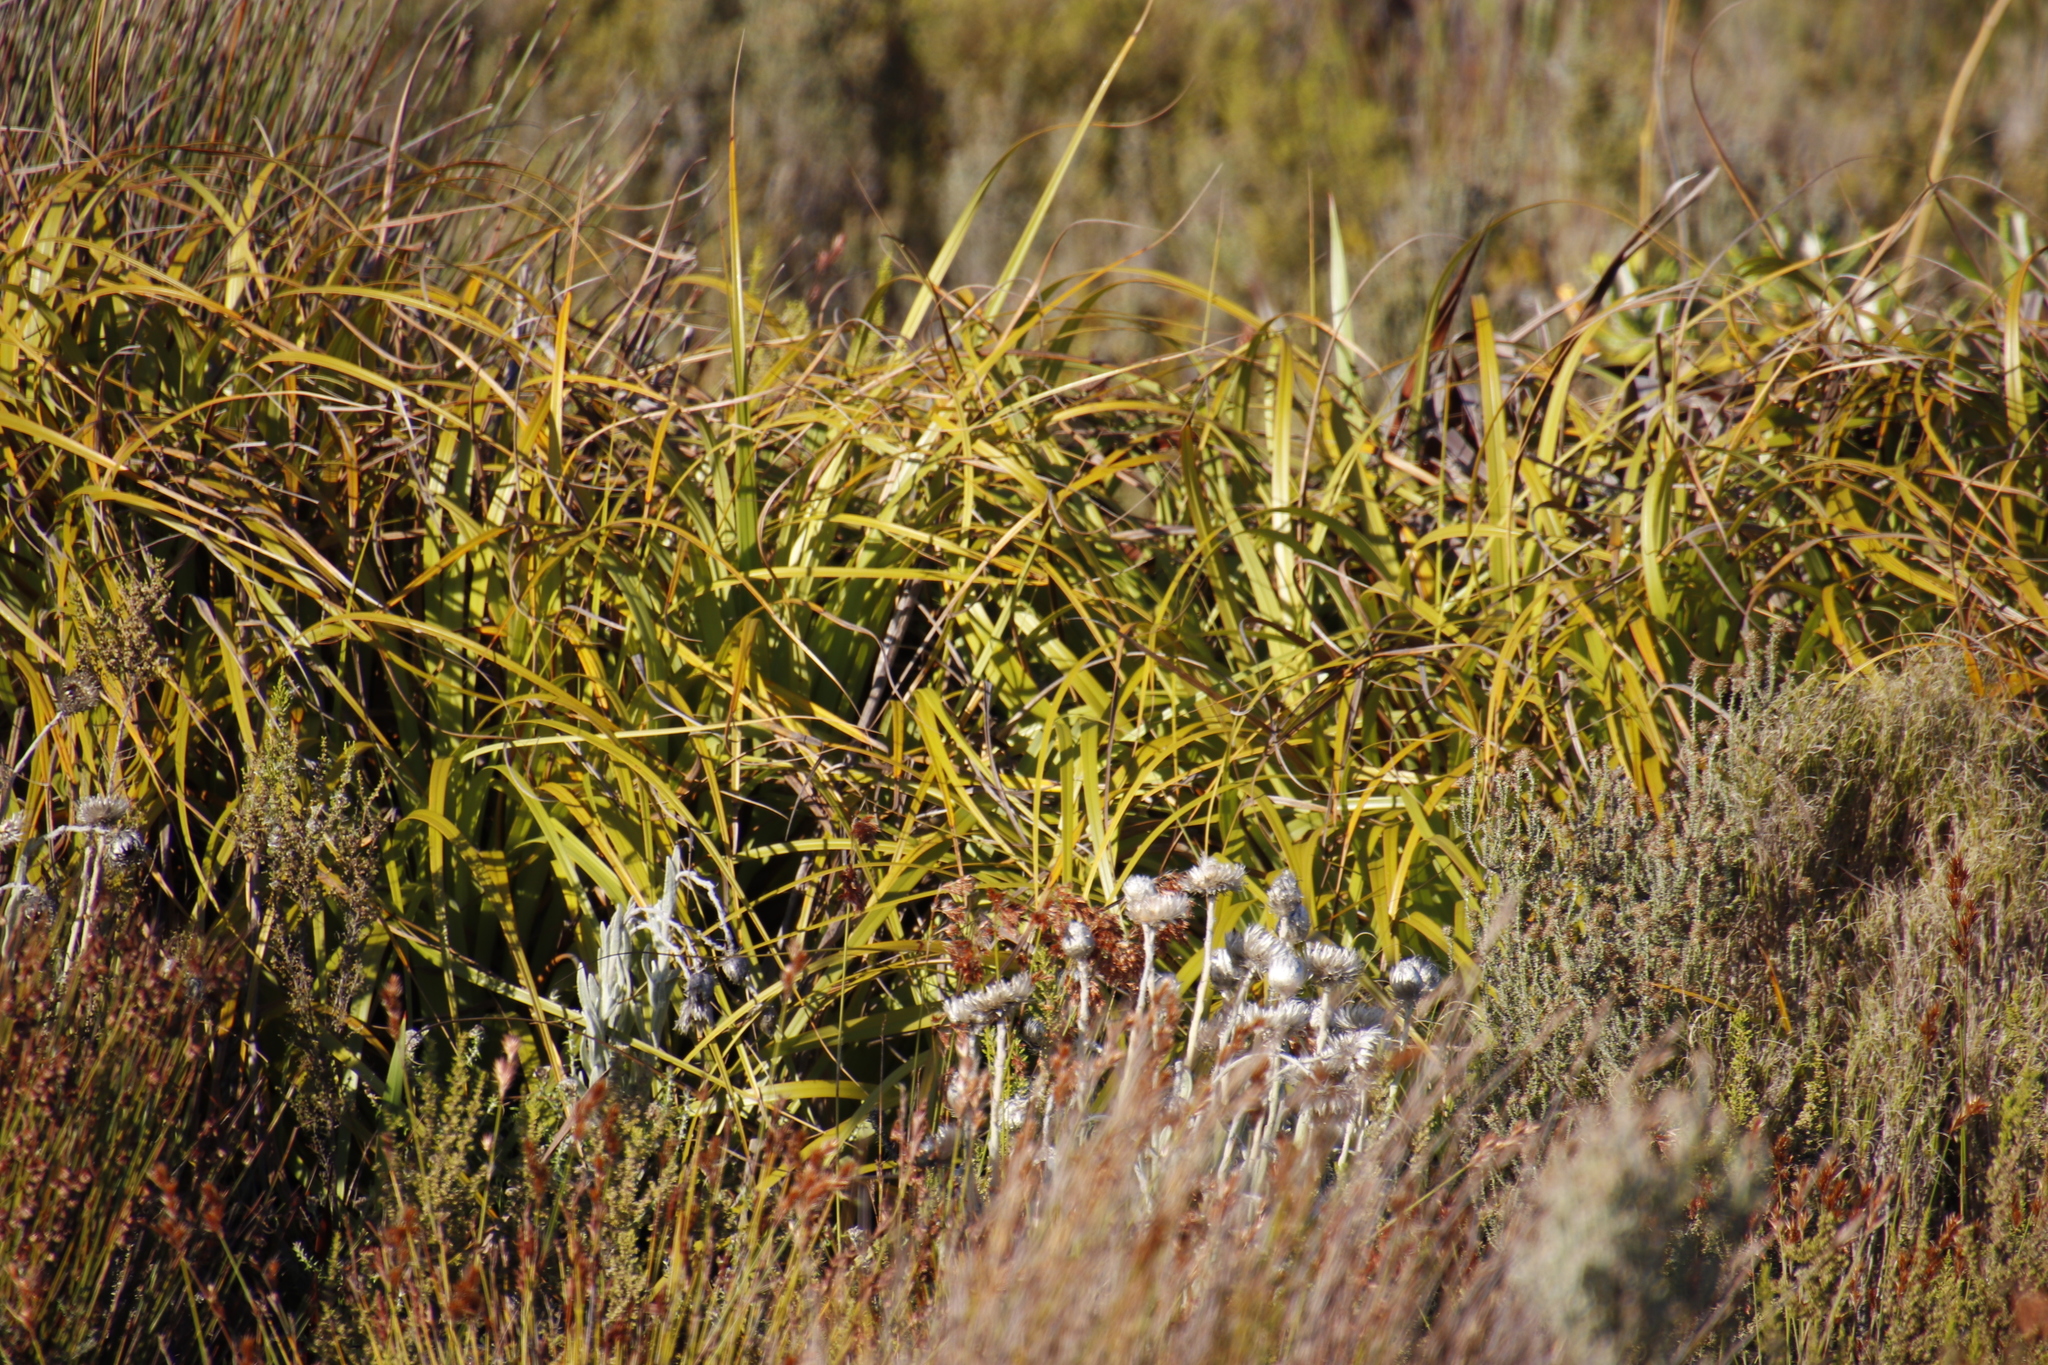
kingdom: Plantae
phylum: Tracheophyta
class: Liliopsida
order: Poales
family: Cyperaceae
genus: Tetraria
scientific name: Tetraria thermalis
